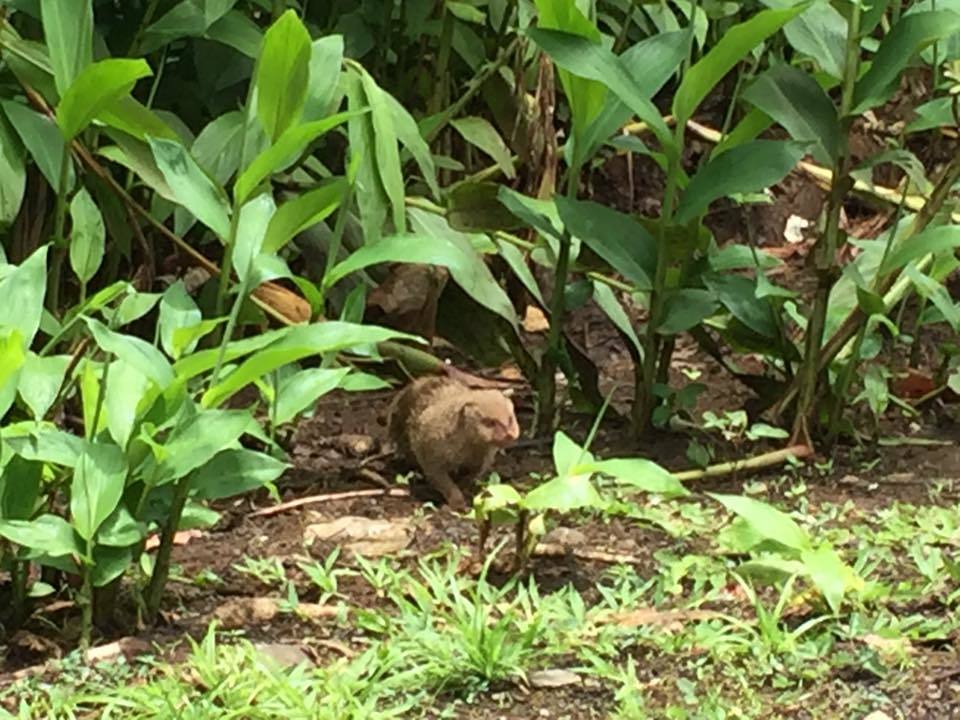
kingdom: Animalia
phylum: Chordata
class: Mammalia
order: Carnivora
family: Herpestidae
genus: Herpestes
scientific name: Herpestes javanicus
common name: Small asian mongoose
